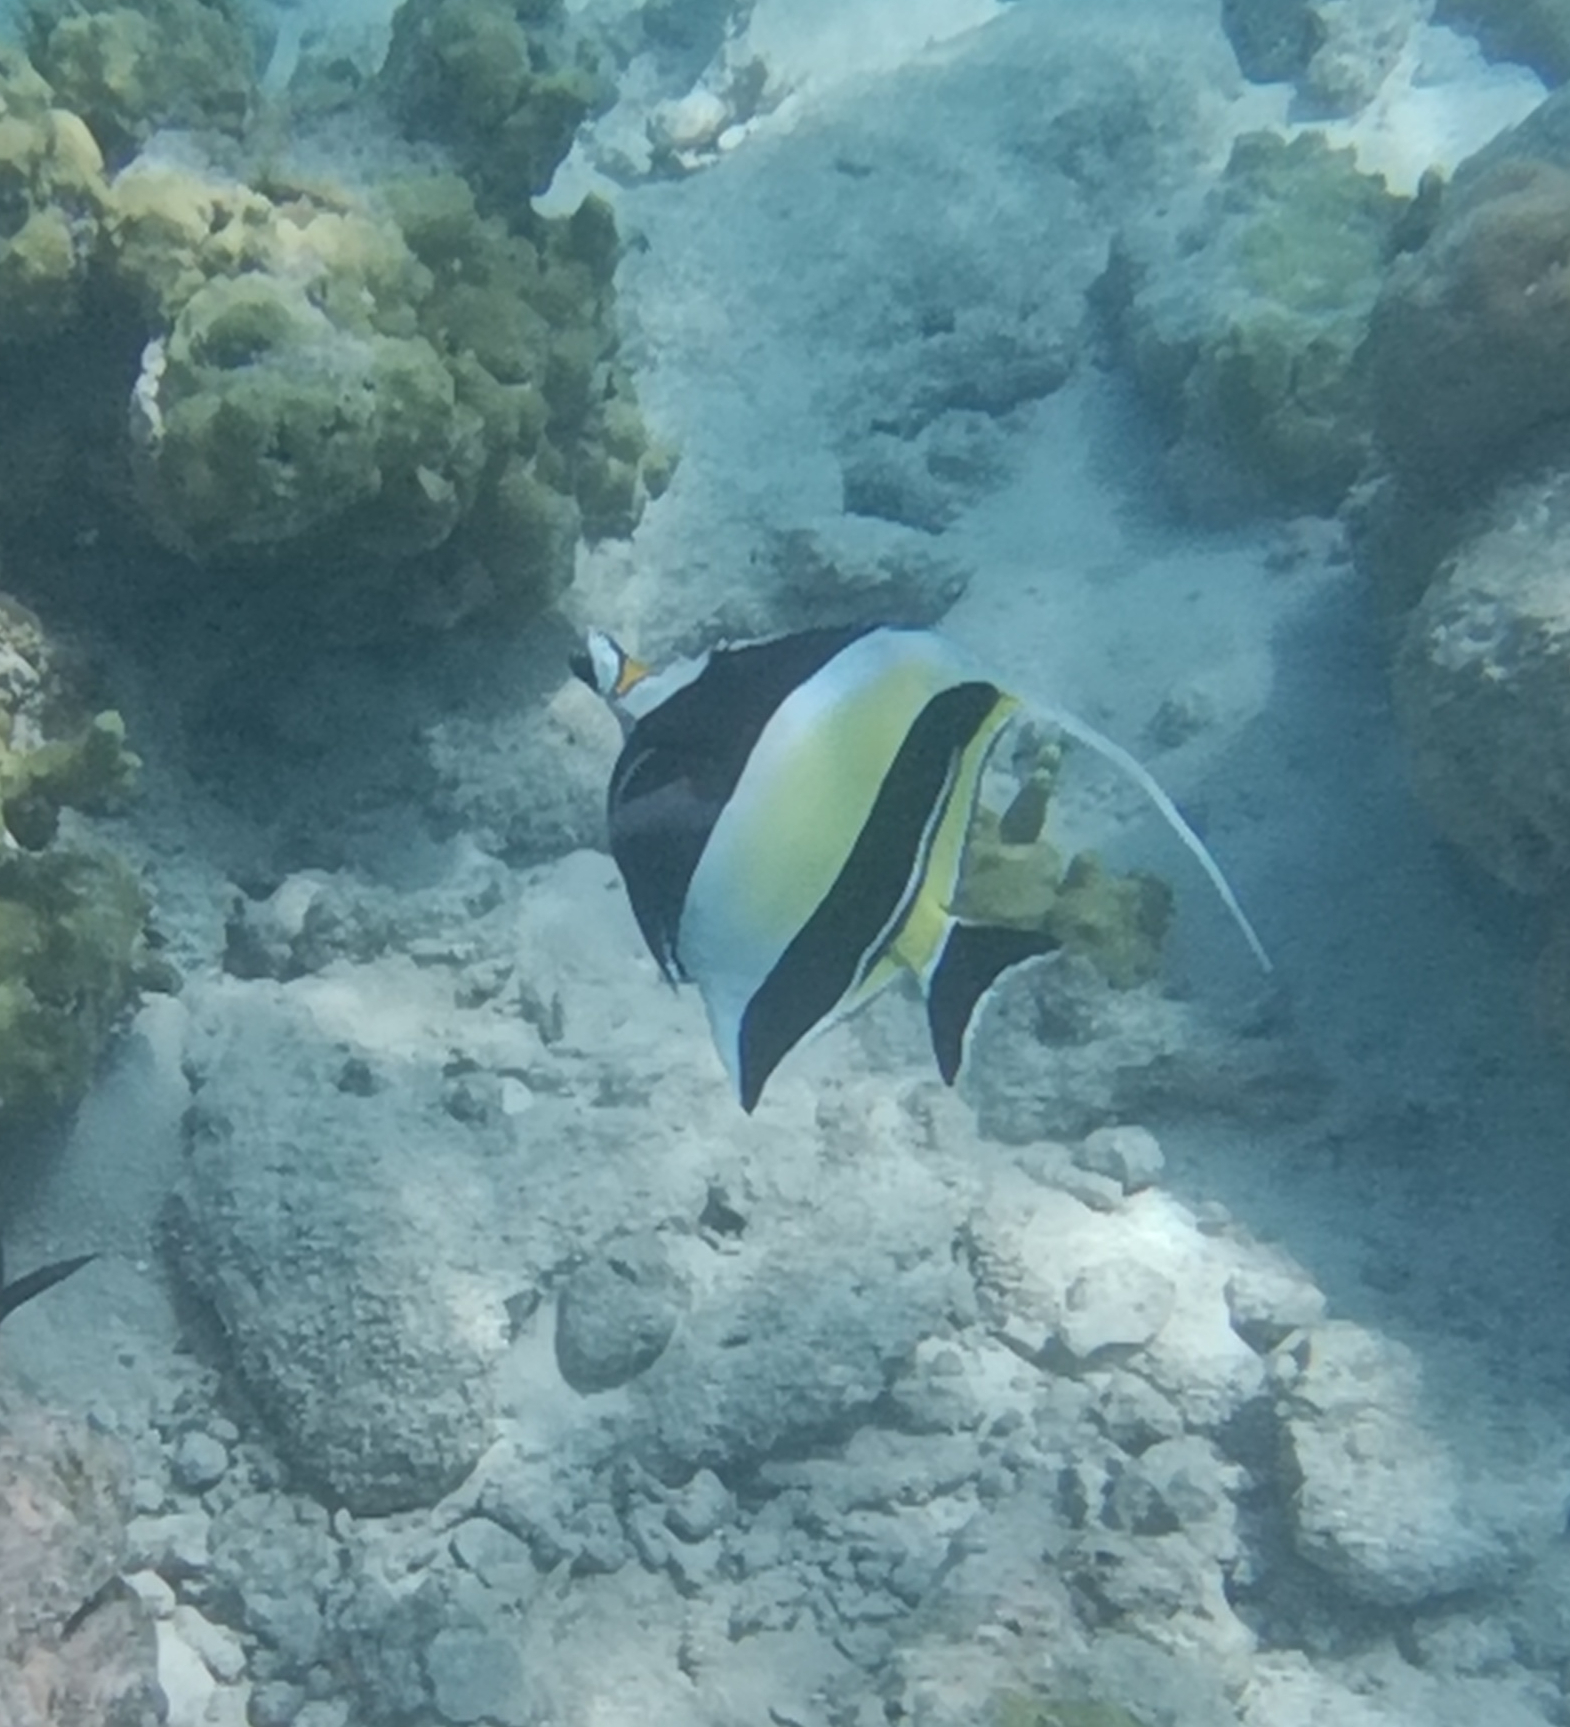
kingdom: Animalia
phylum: Chordata
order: Perciformes
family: Zanclidae
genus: Zanclus
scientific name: Zanclus cornutus
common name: Moorish idol
